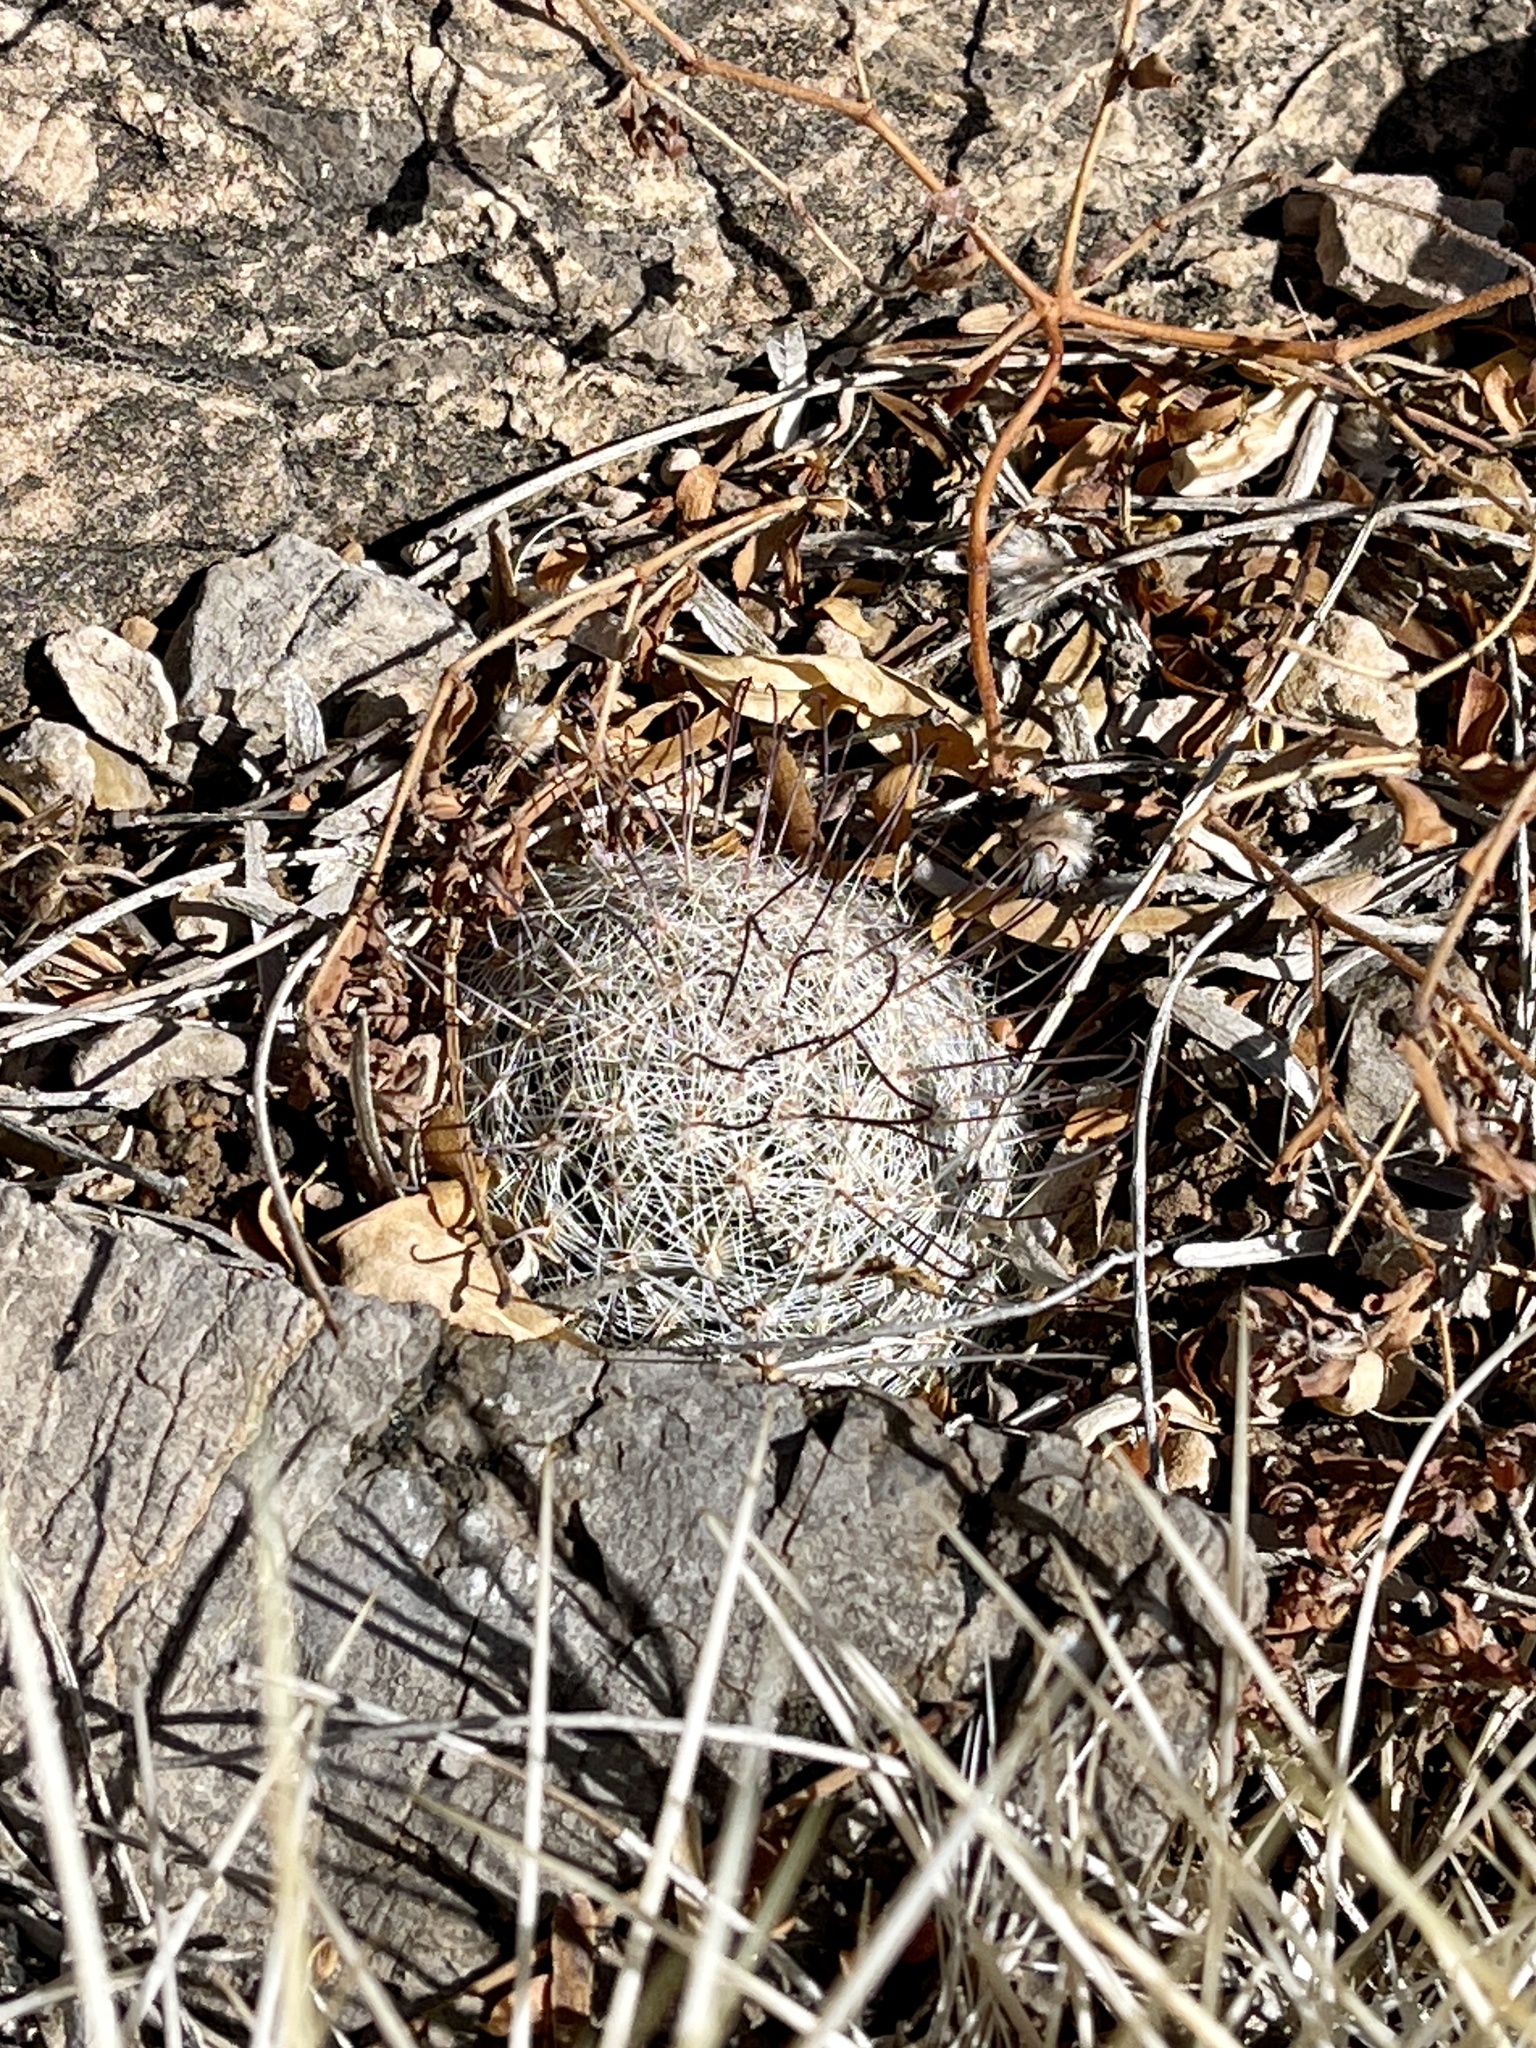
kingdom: Plantae
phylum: Tracheophyta
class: Magnoliopsida
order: Caryophyllales
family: Cactaceae
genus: Cochemiea
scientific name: Cochemiea grahamii
